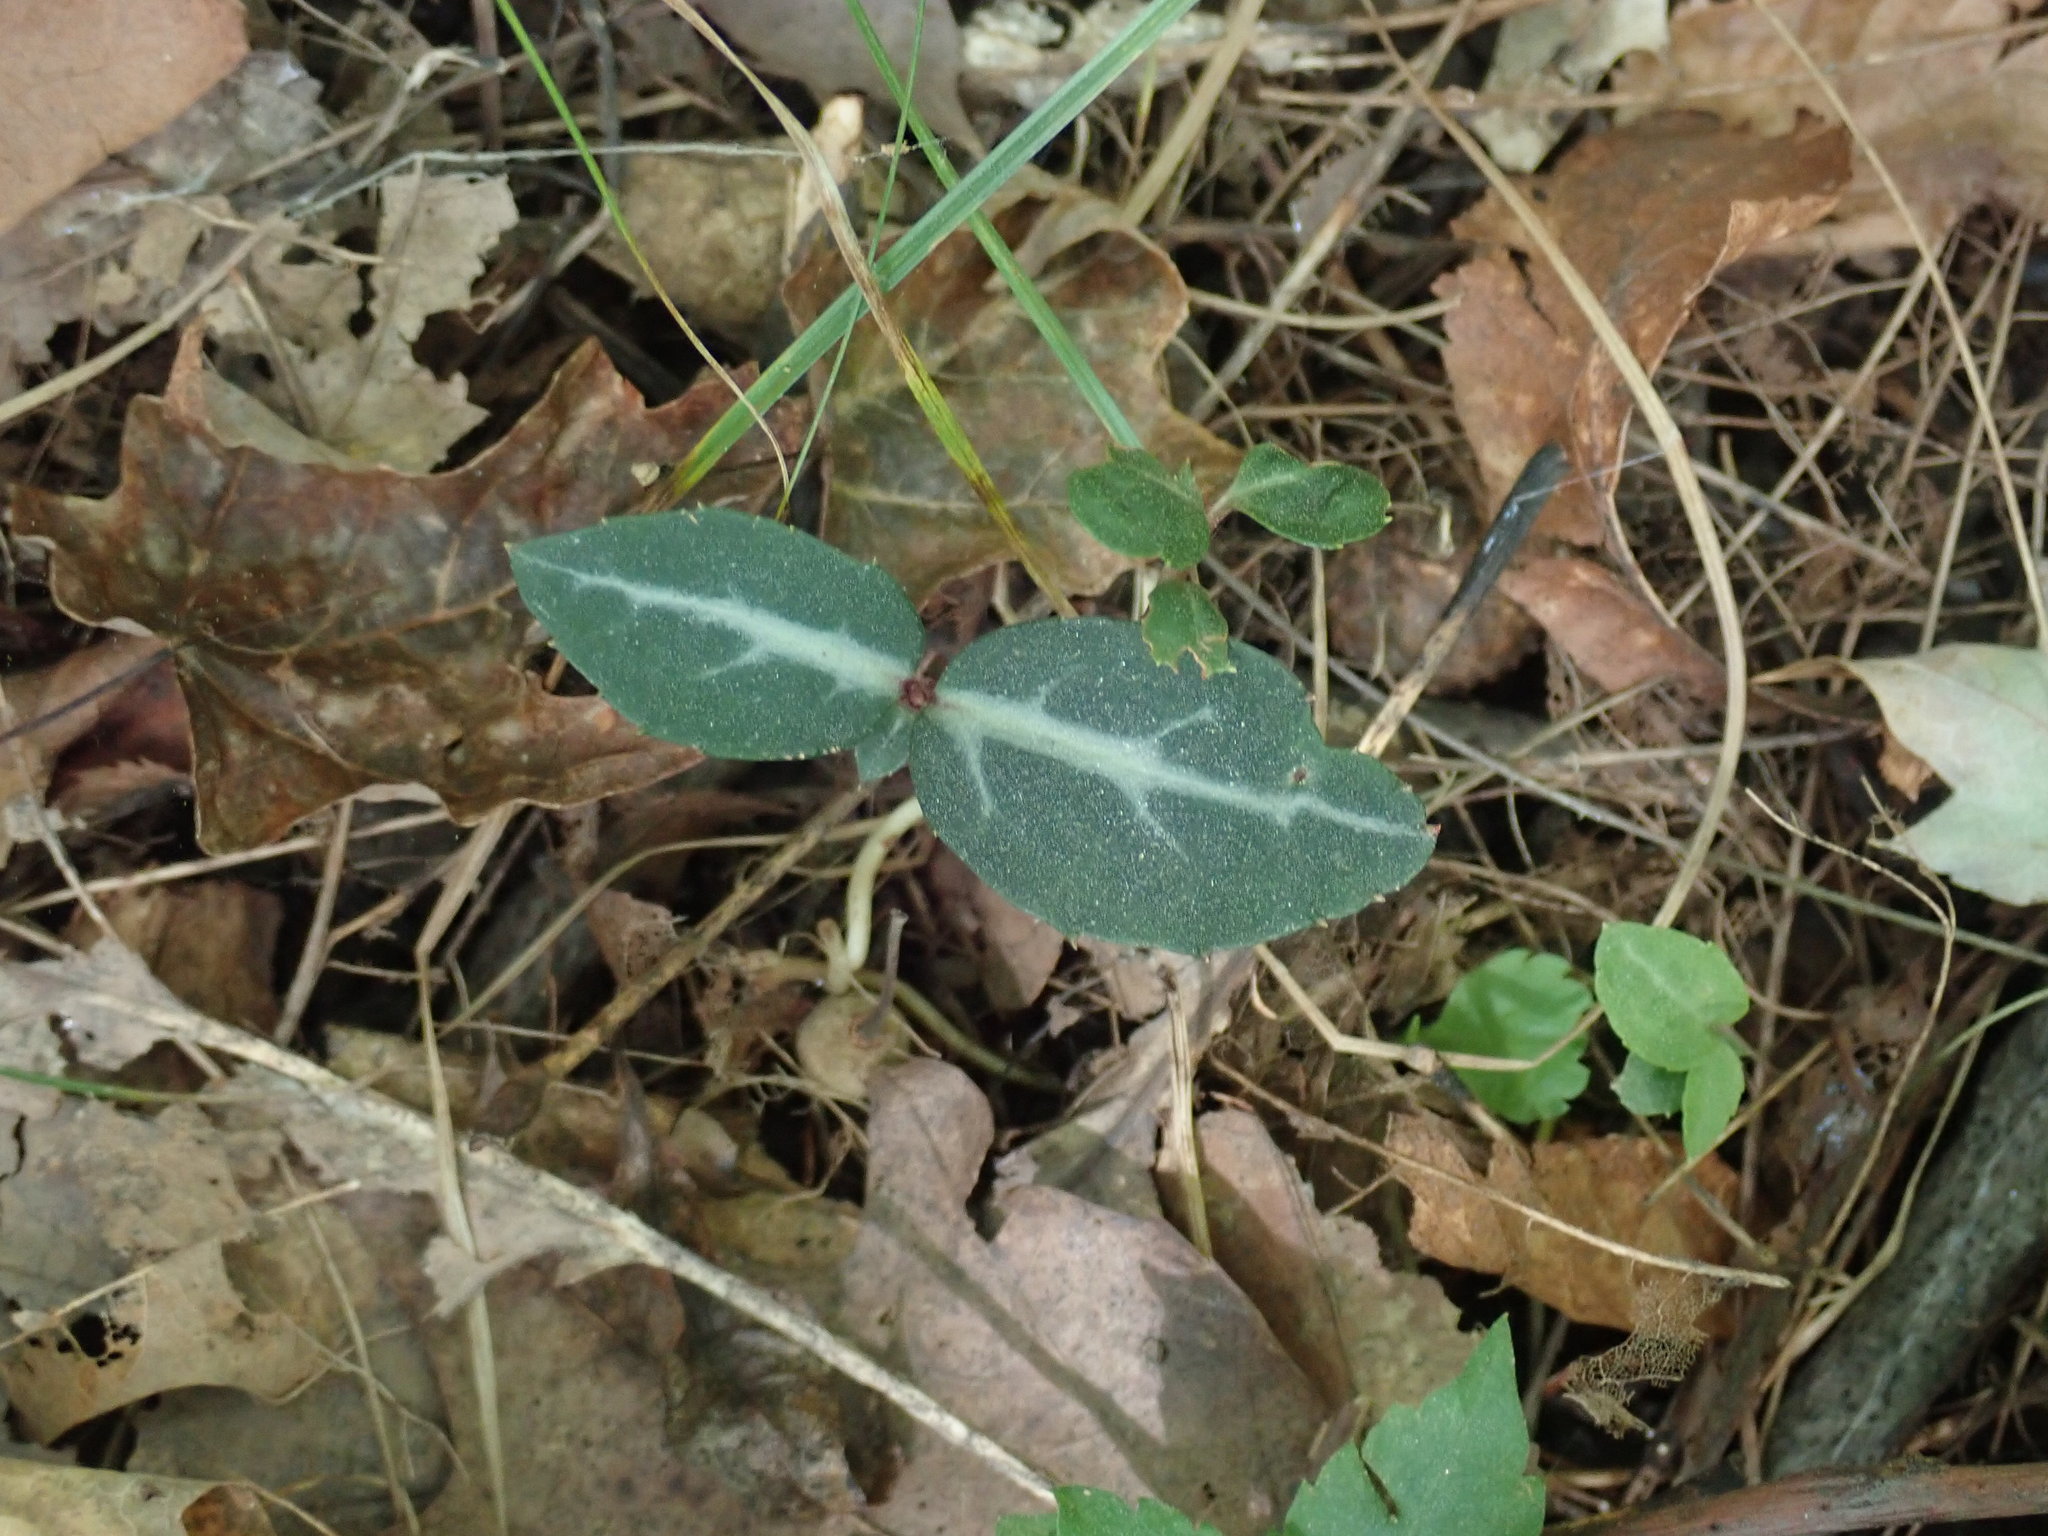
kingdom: Plantae
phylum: Tracheophyta
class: Magnoliopsida
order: Ericales
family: Ericaceae
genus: Chimaphila
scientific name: Chimaphila maculata
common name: Spotted pipsissewa
